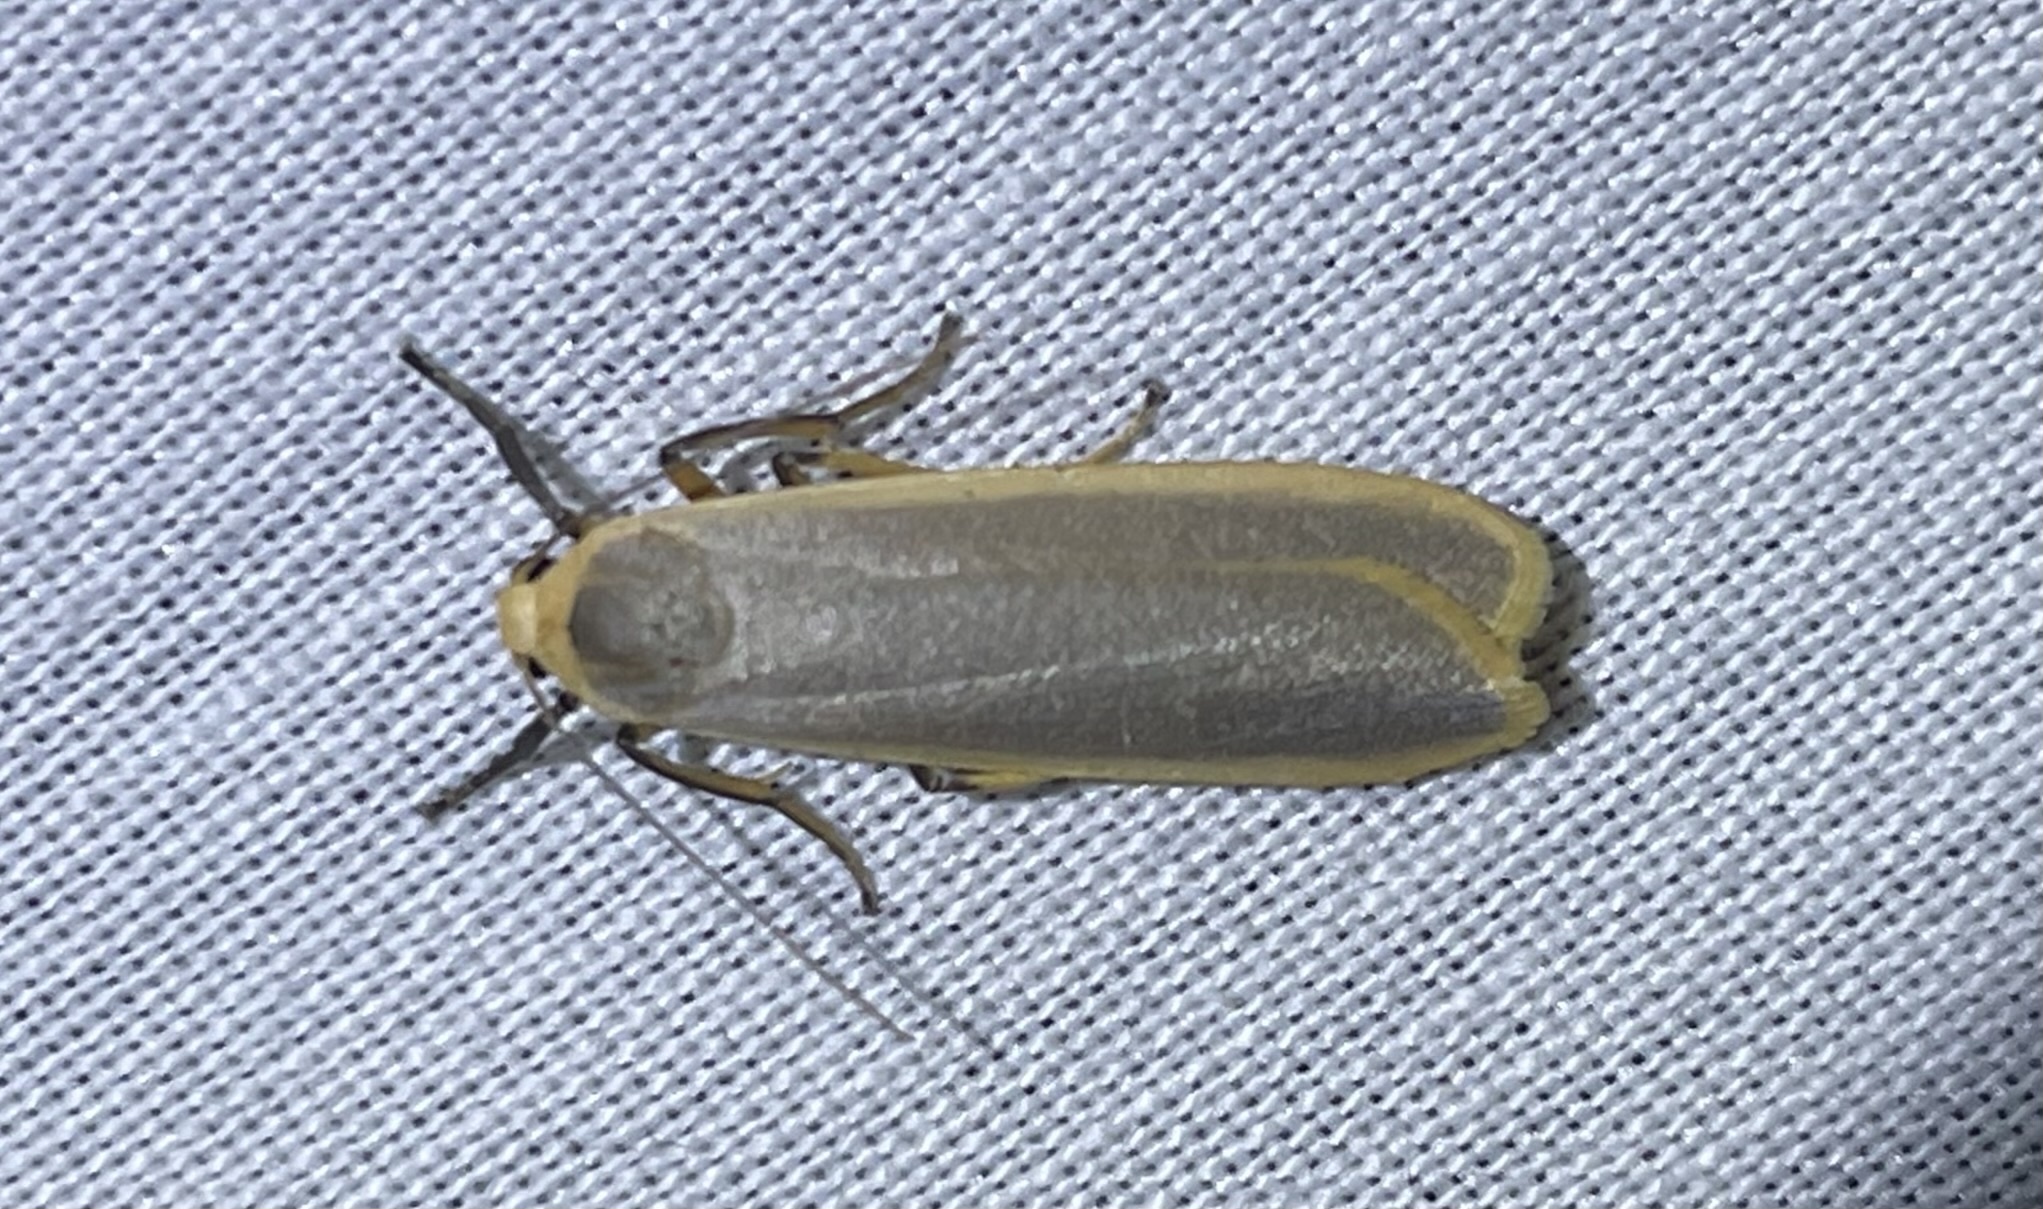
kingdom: Animalia
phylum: Arthropoda
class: Insecta
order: Lepidoptera
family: Erebidae
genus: Brunia
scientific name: Brunia vicaria
